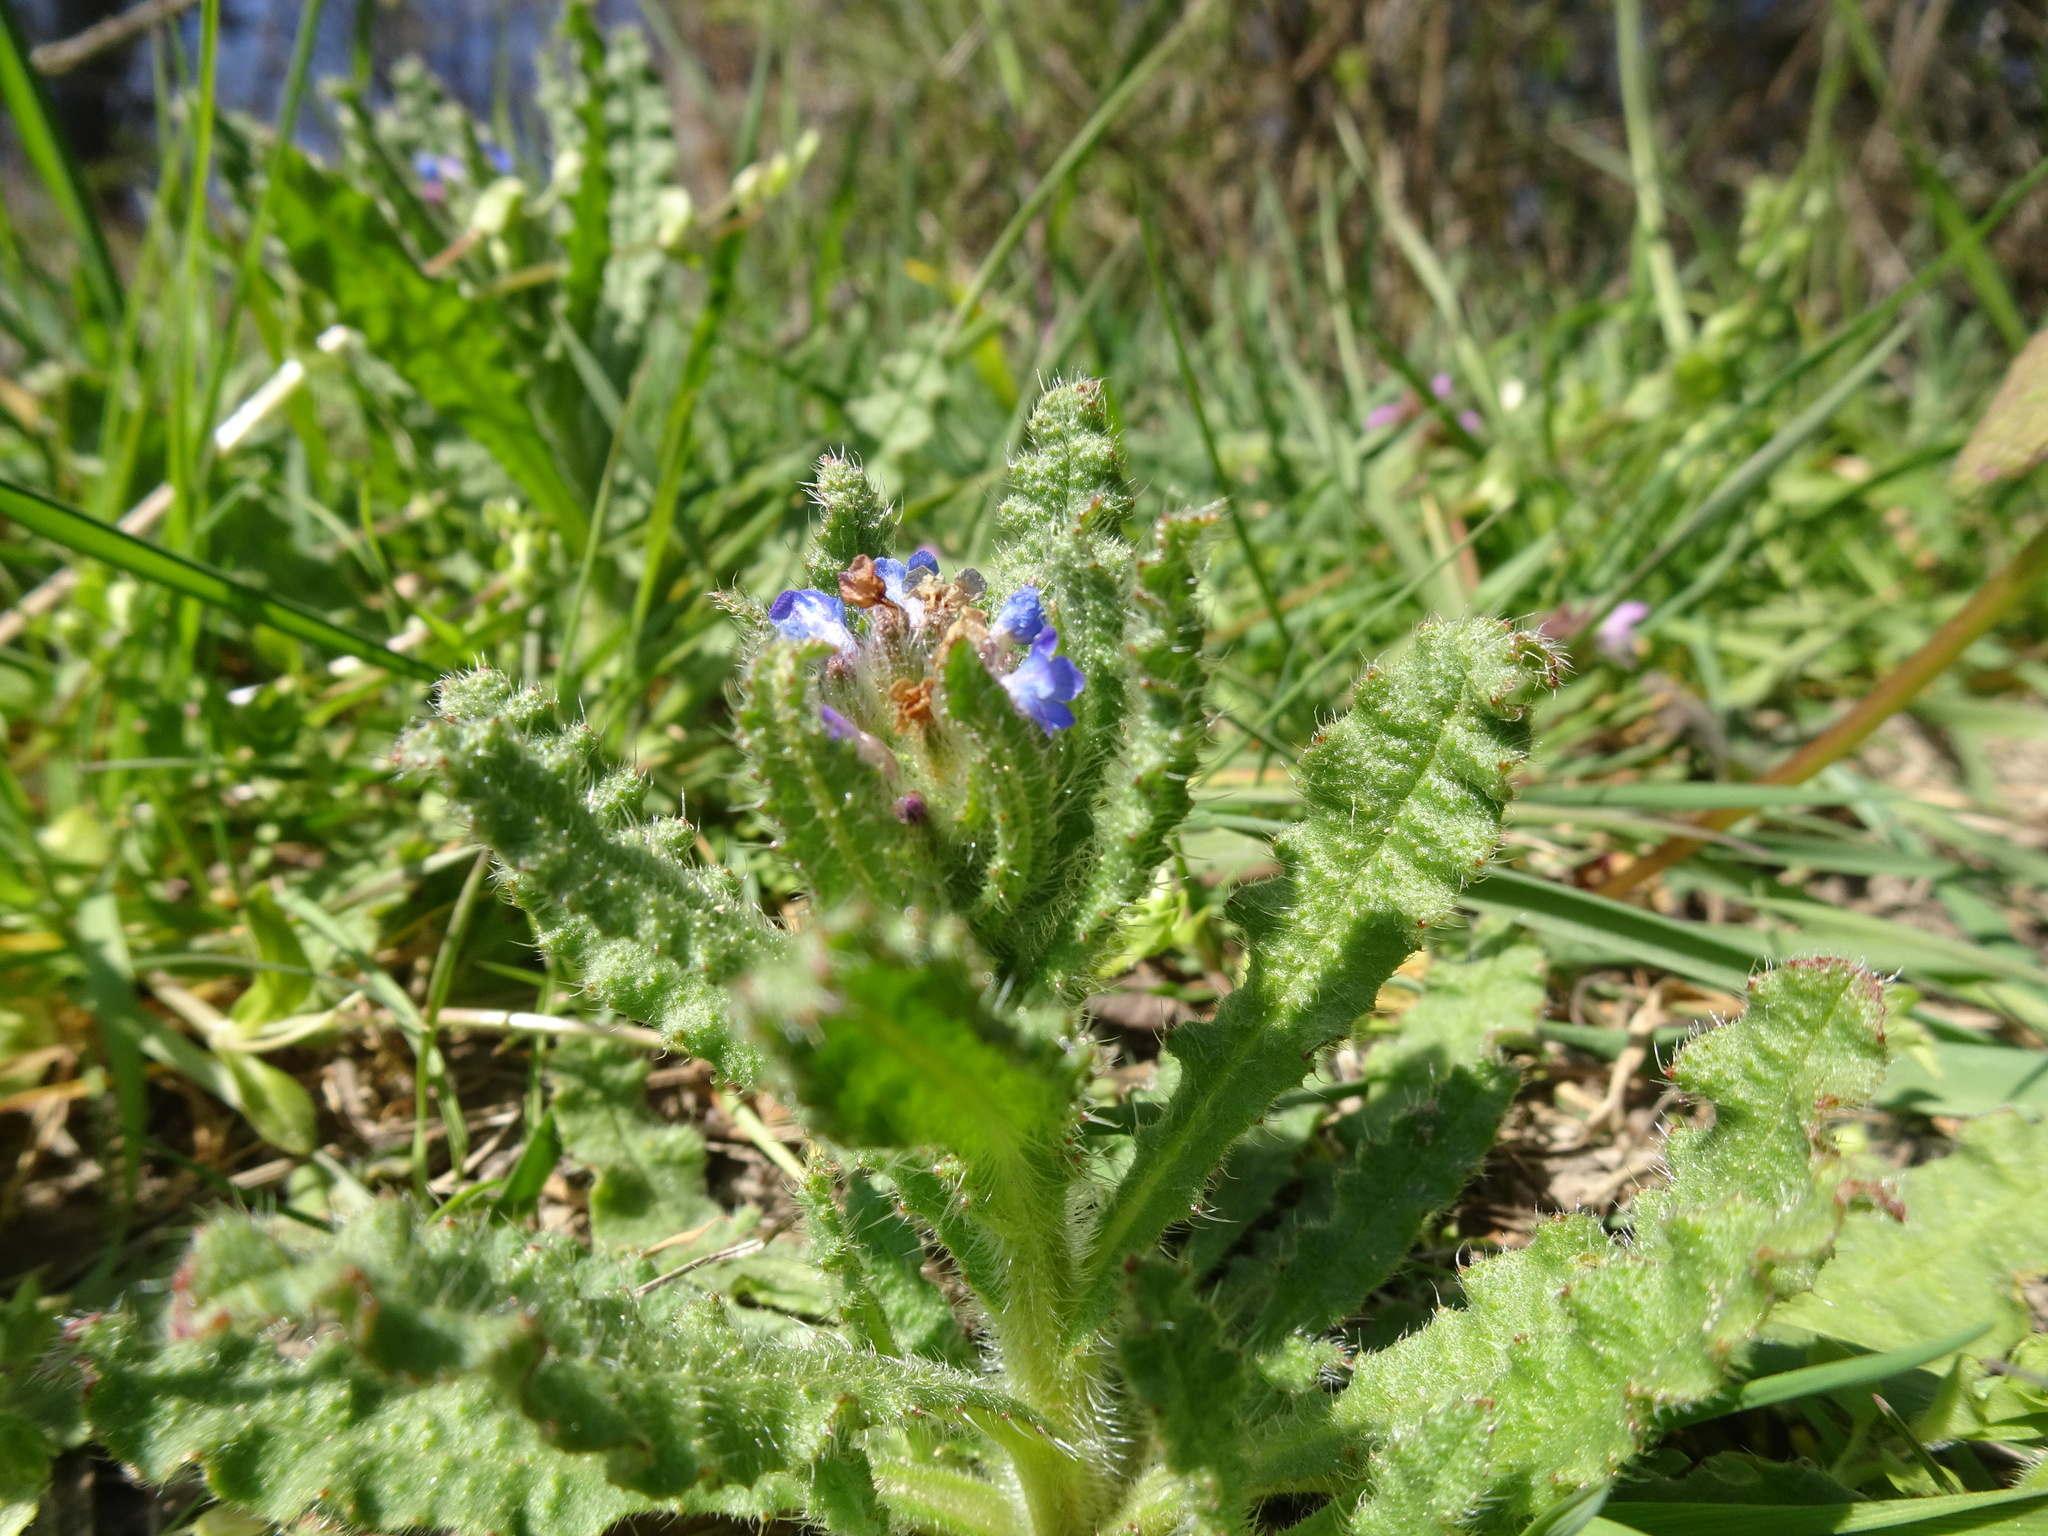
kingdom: Plantae
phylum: Tracheophyta
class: Magnoliopsida
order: Boraginales
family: Boraginaceae
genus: Lycopsis
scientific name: Lycopsis arvensis
